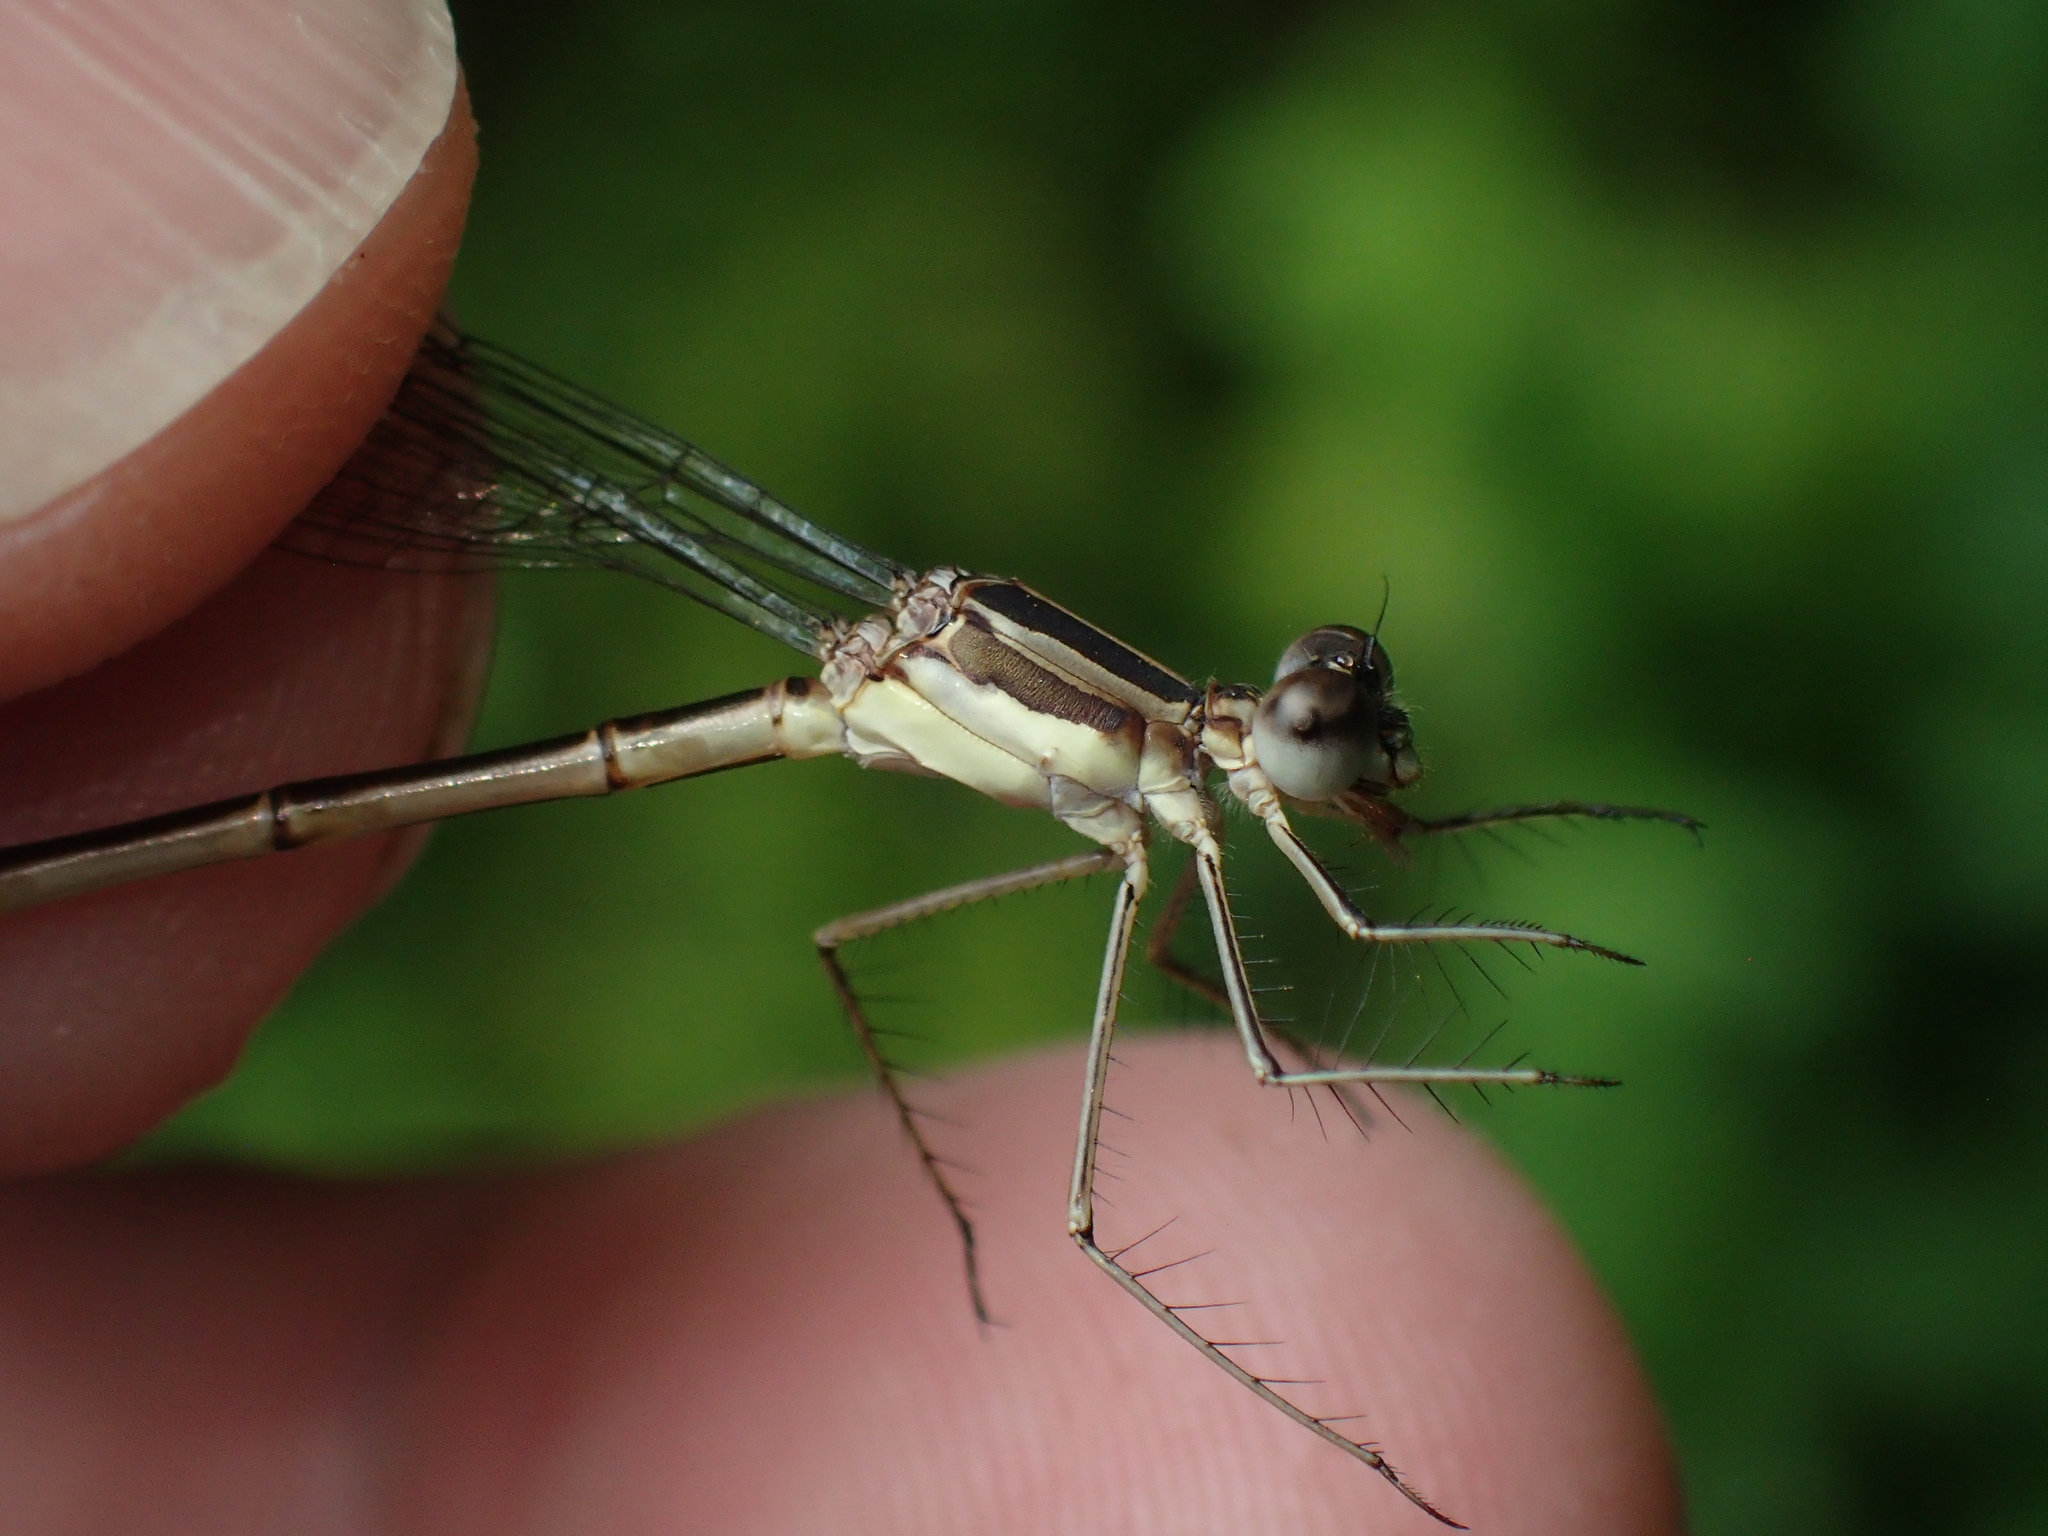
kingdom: Animalia
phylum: Arthropoda
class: Insecta
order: Odonata
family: Lestidae
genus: Lestes
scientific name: Lestes rectangularis
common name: Slender spreadwing
